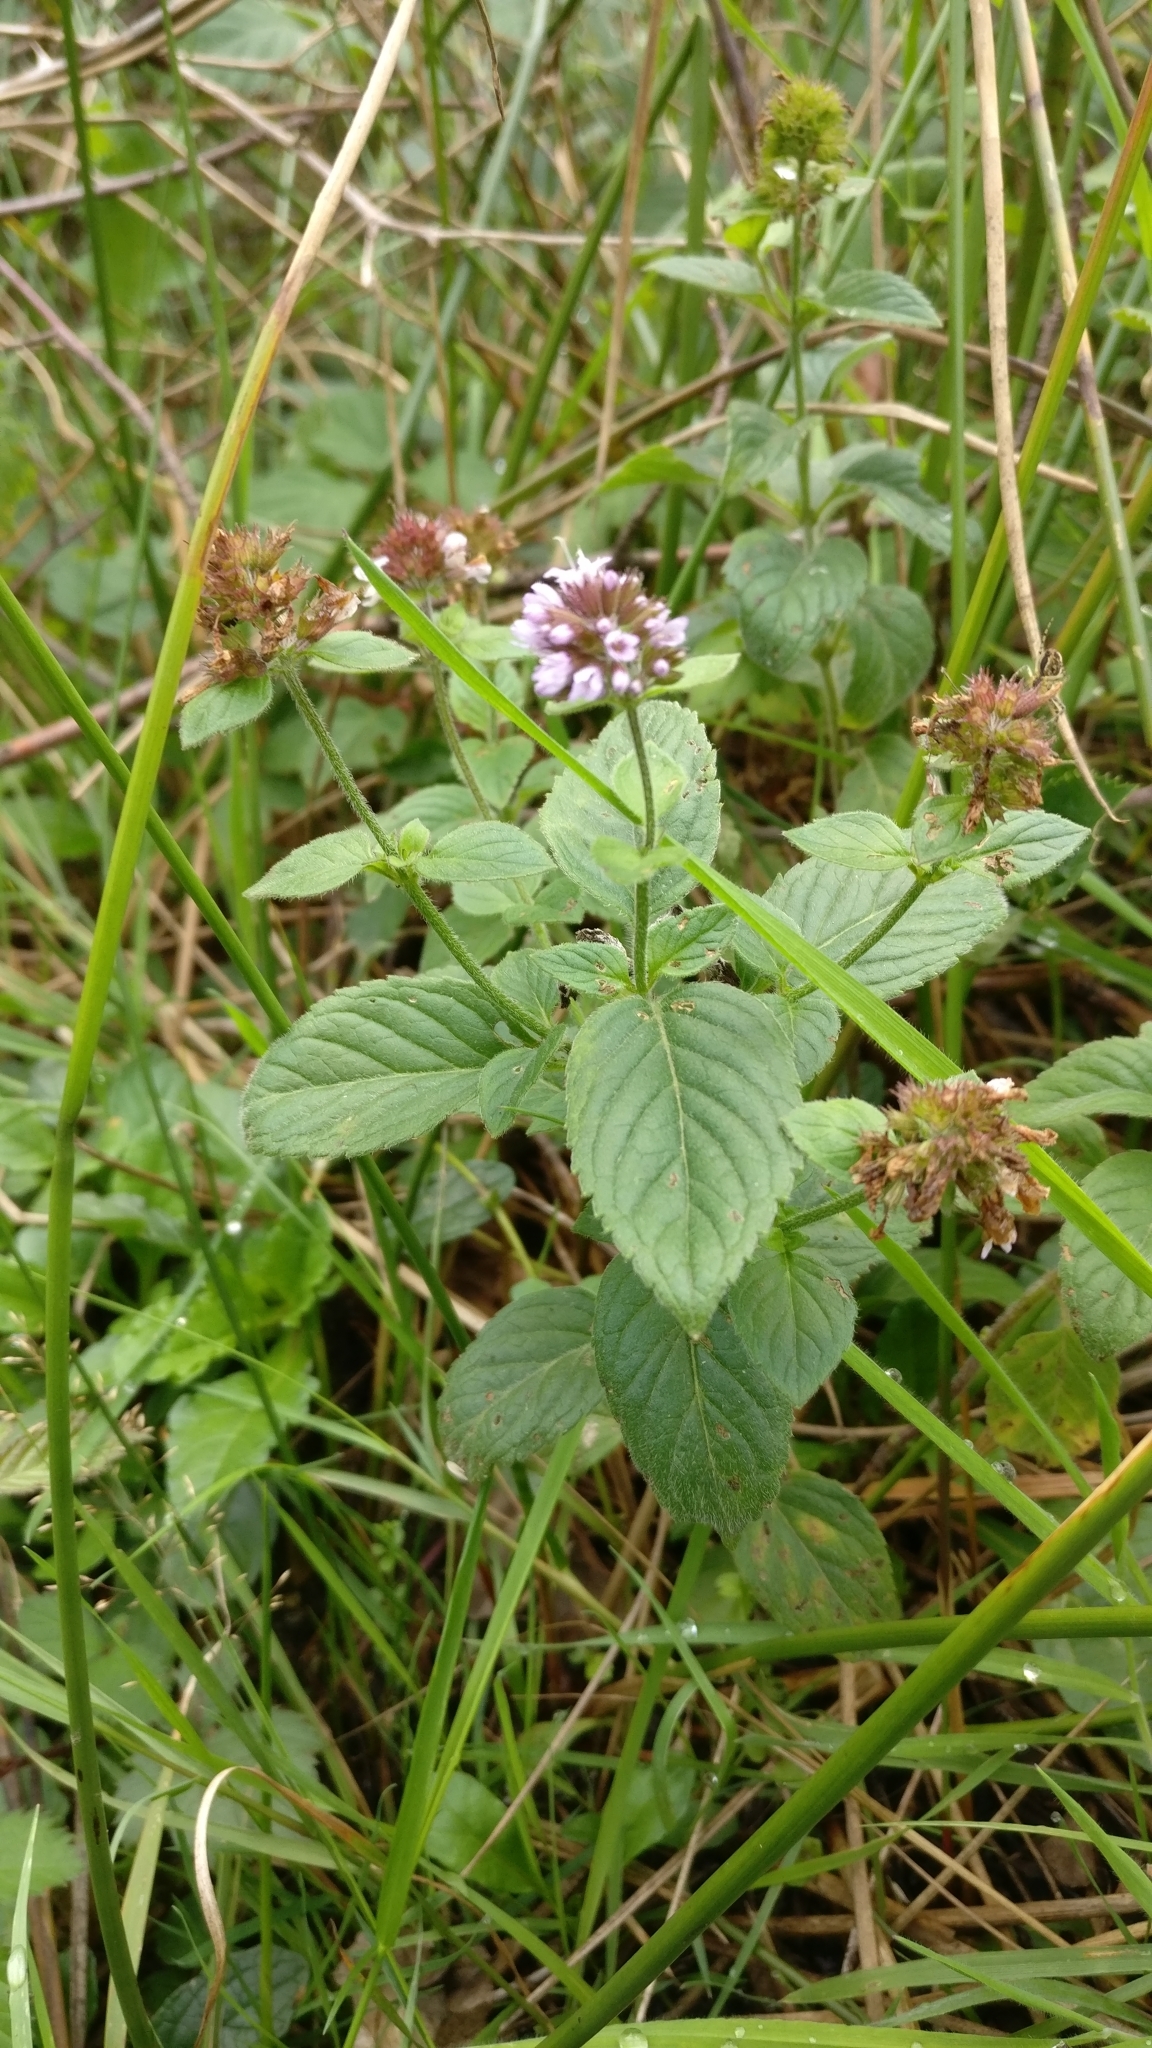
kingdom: Plantae
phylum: Tracheophyta
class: Magnoliopsida
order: Lamiales
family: Lamiaceae
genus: Mentha
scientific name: Mentha aquatica
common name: Water mint
